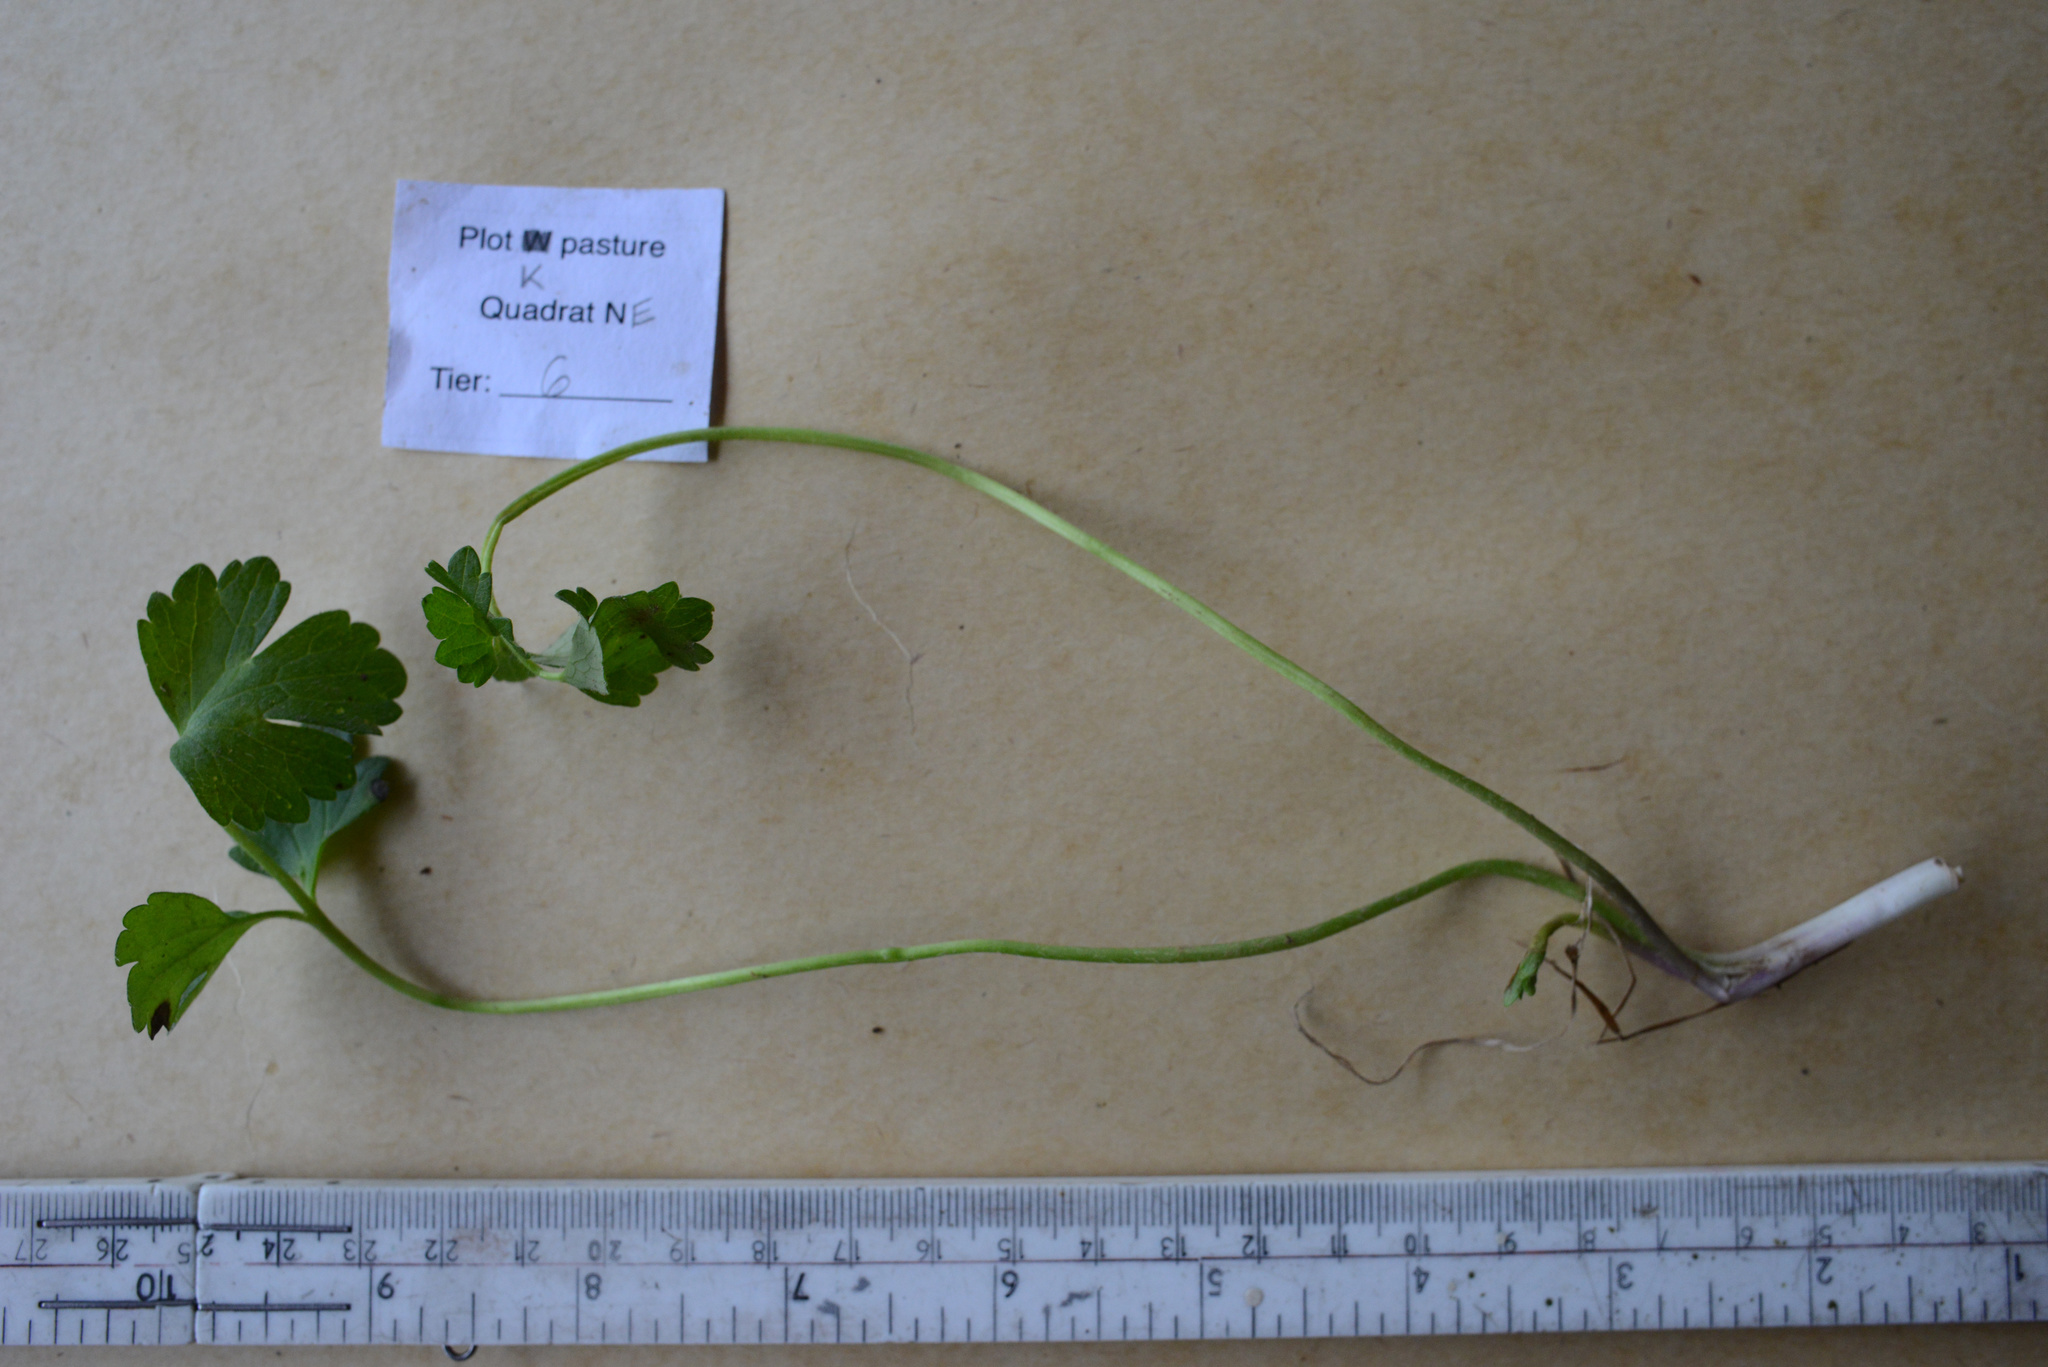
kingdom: Plantae
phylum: Tracheophyta
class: Magnoliopsida
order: Ranunculales
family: Ranunculaceae
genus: Ranunculus
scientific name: Ranunculus repens
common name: Creeping buttercup
